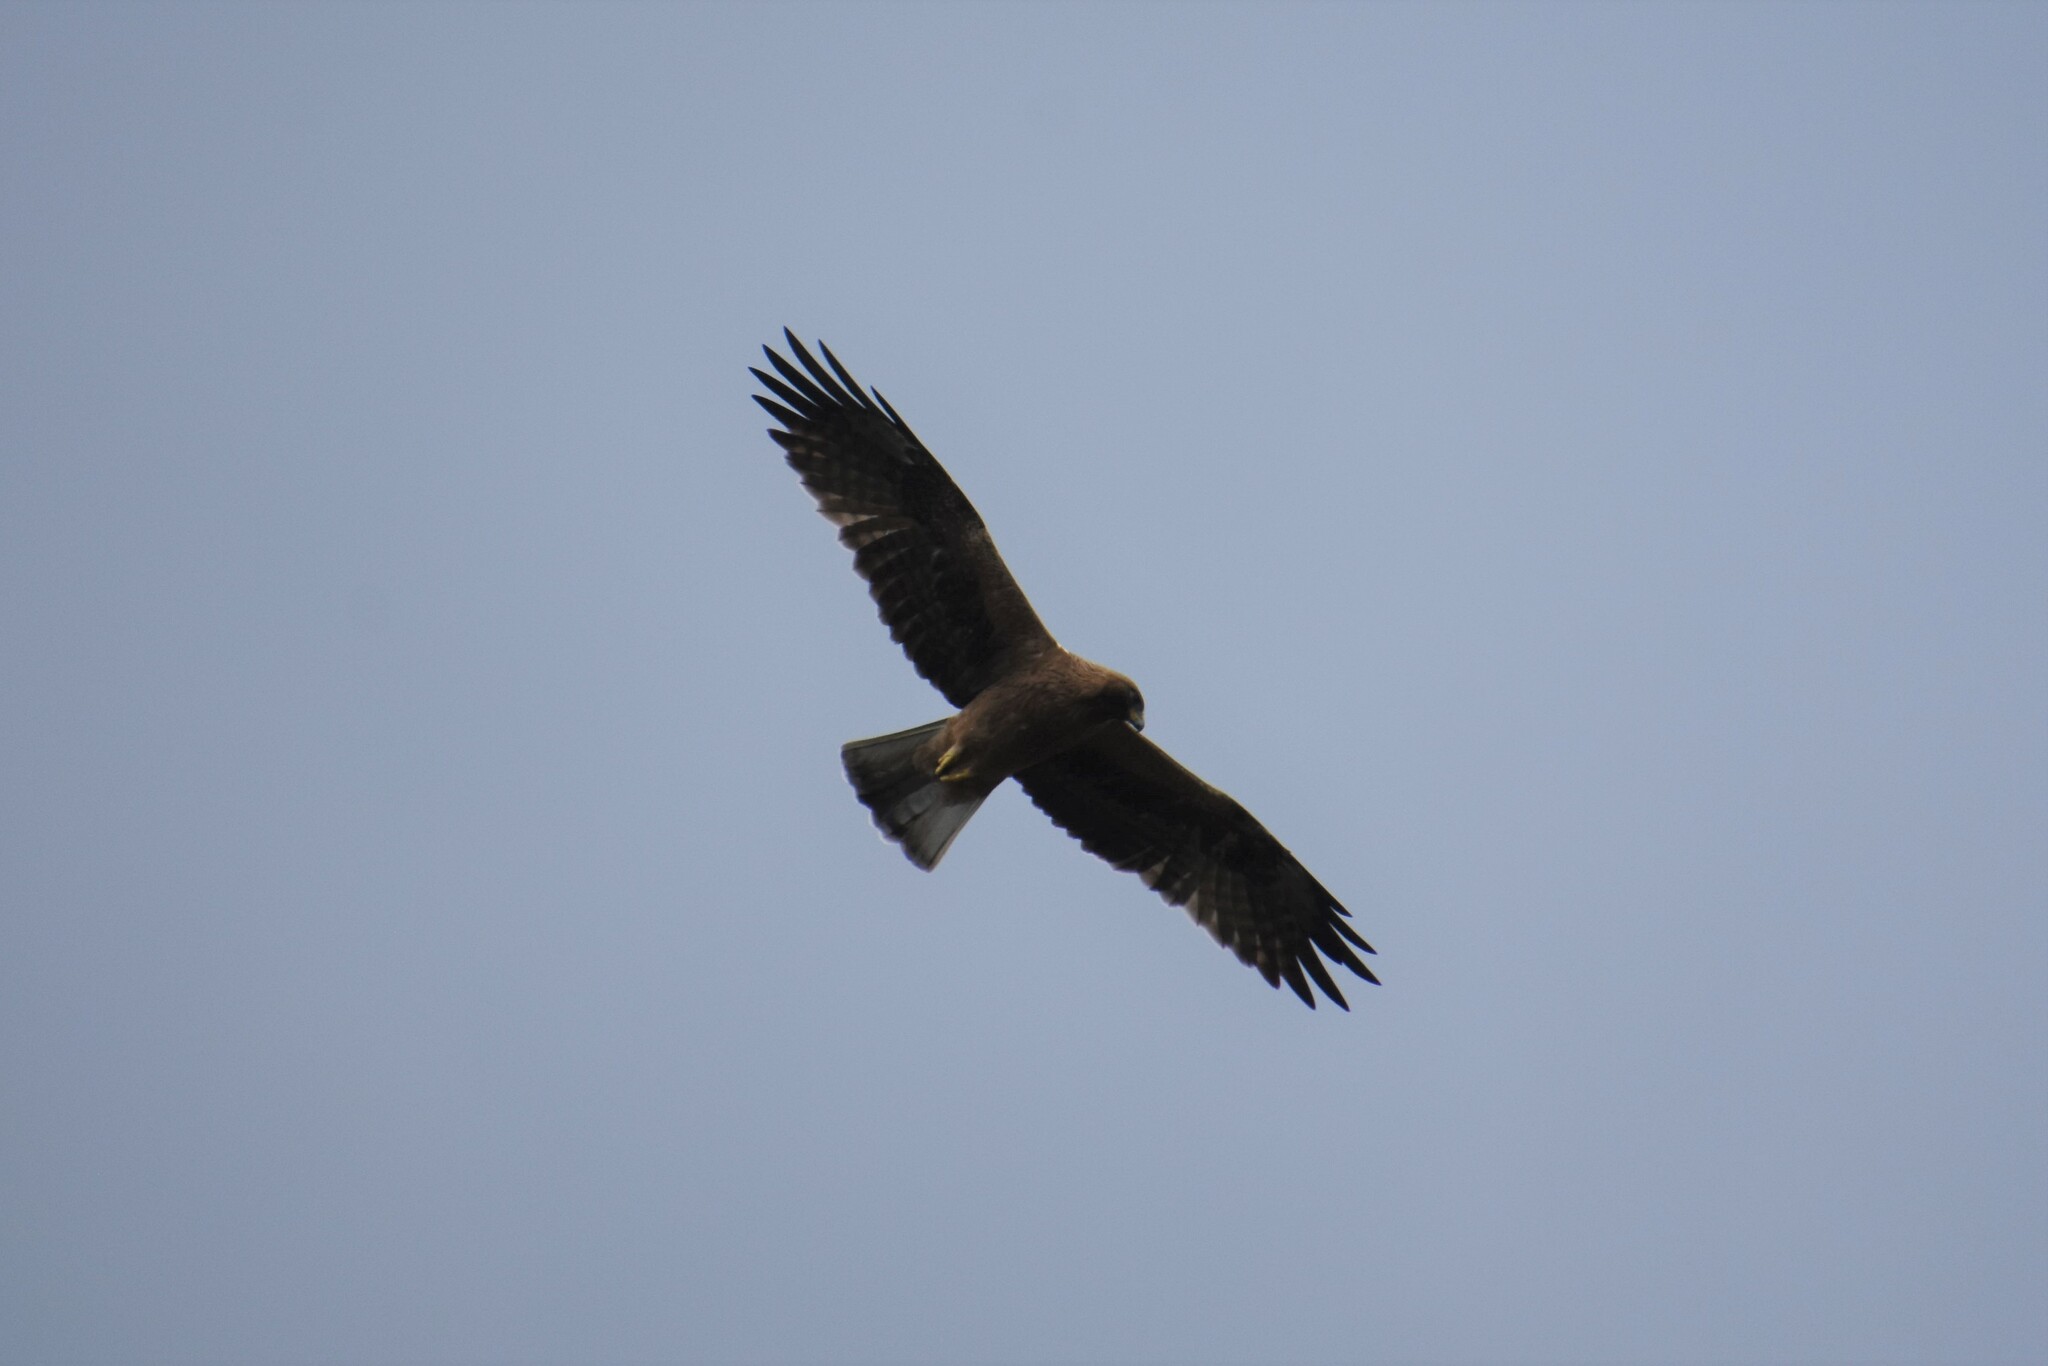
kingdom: Animalia
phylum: Chordata
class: Aves
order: Accipitriformes
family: Accipitridae
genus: Hieraaetus
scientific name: Hieraaetus pennatus
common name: Booted eagle
